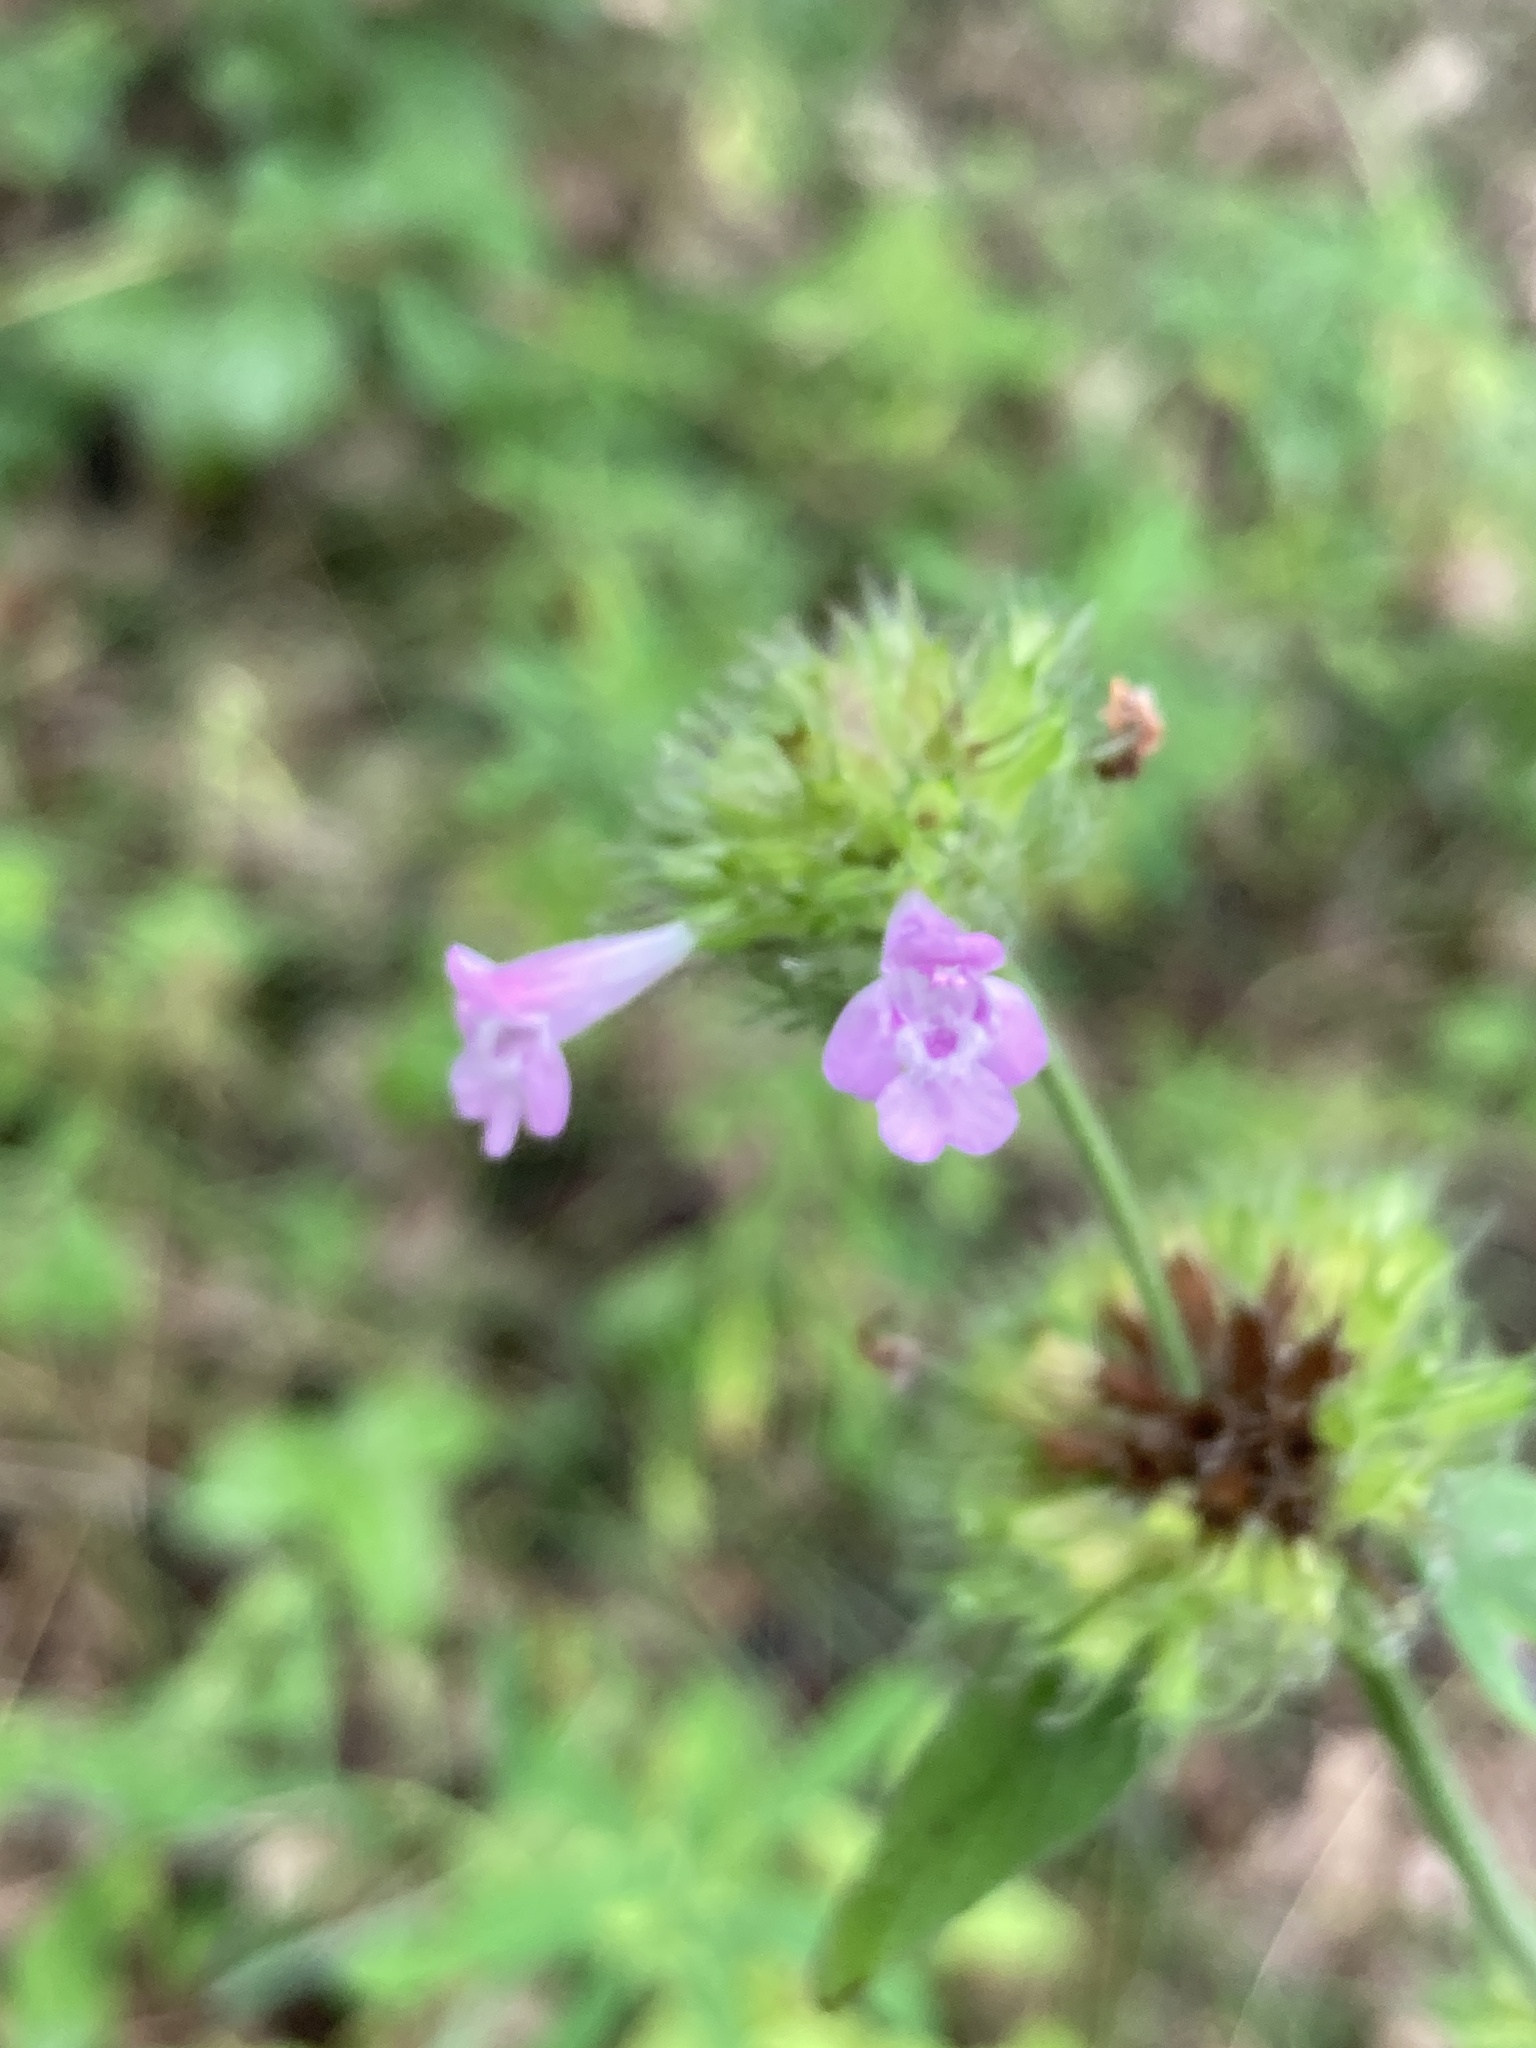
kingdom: Plantae
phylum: Tracheophyta
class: Magnoliopsida
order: Lamiales
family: Lamiaceae
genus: Clinopodium
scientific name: Clinopodium vulgare
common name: Wild basil
